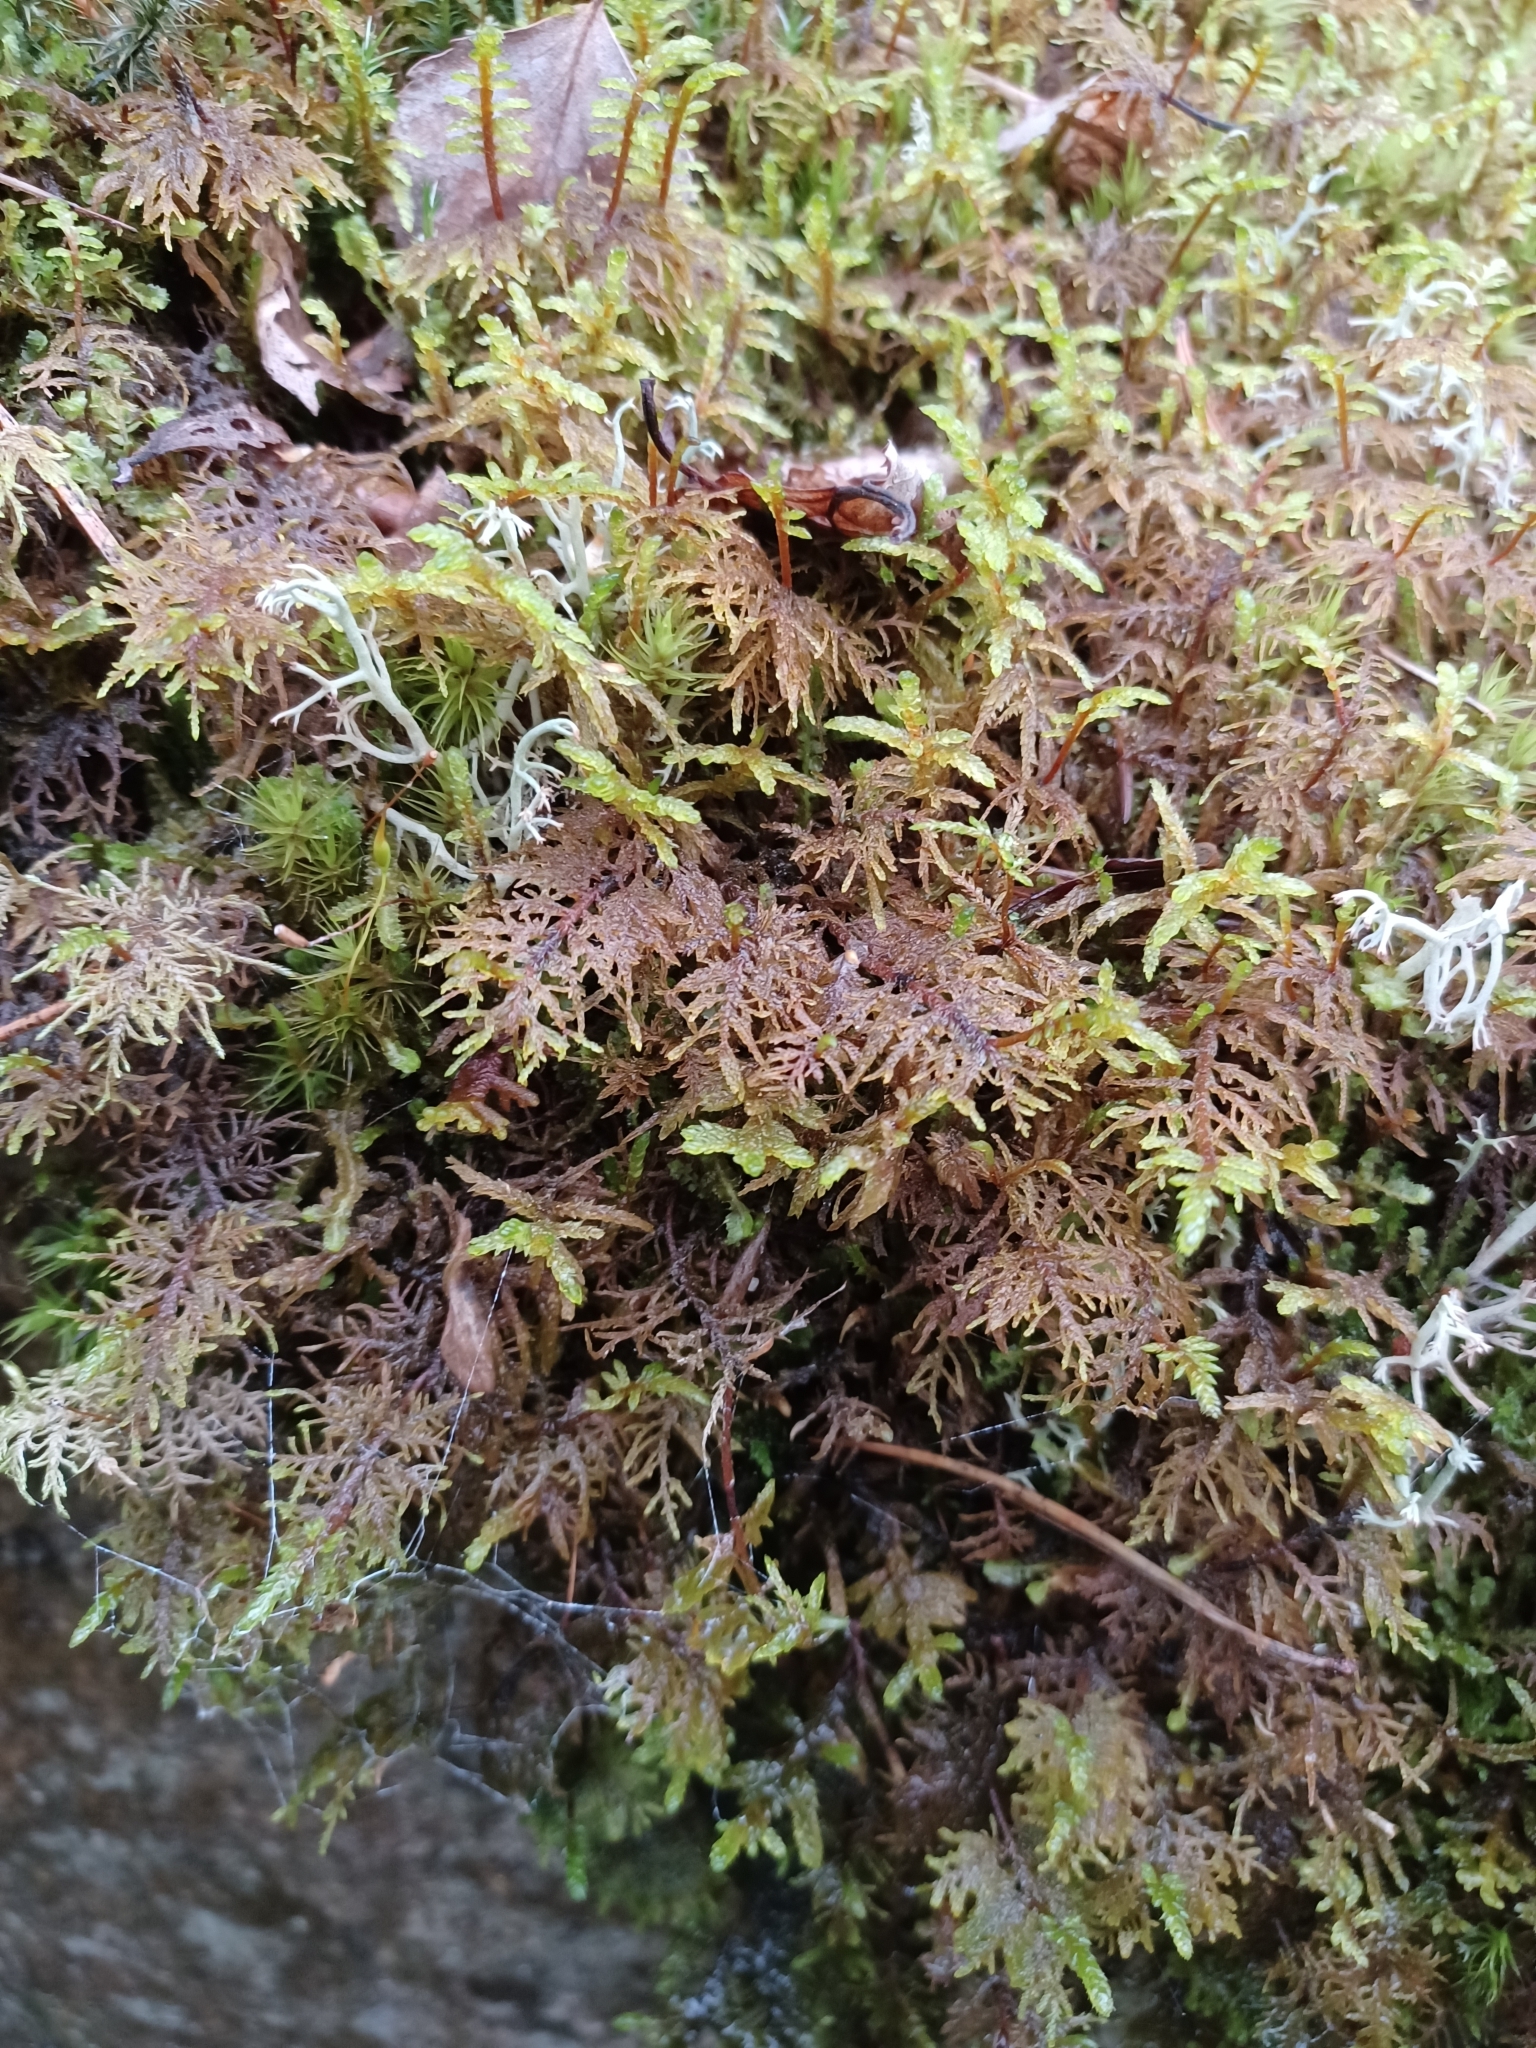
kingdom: Plantae
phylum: Bryophyta
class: Bryopsida
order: Hypnales
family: Hylocomiaceae
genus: Hylocomium
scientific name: Hylocomium splendens
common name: Stairstep moss
